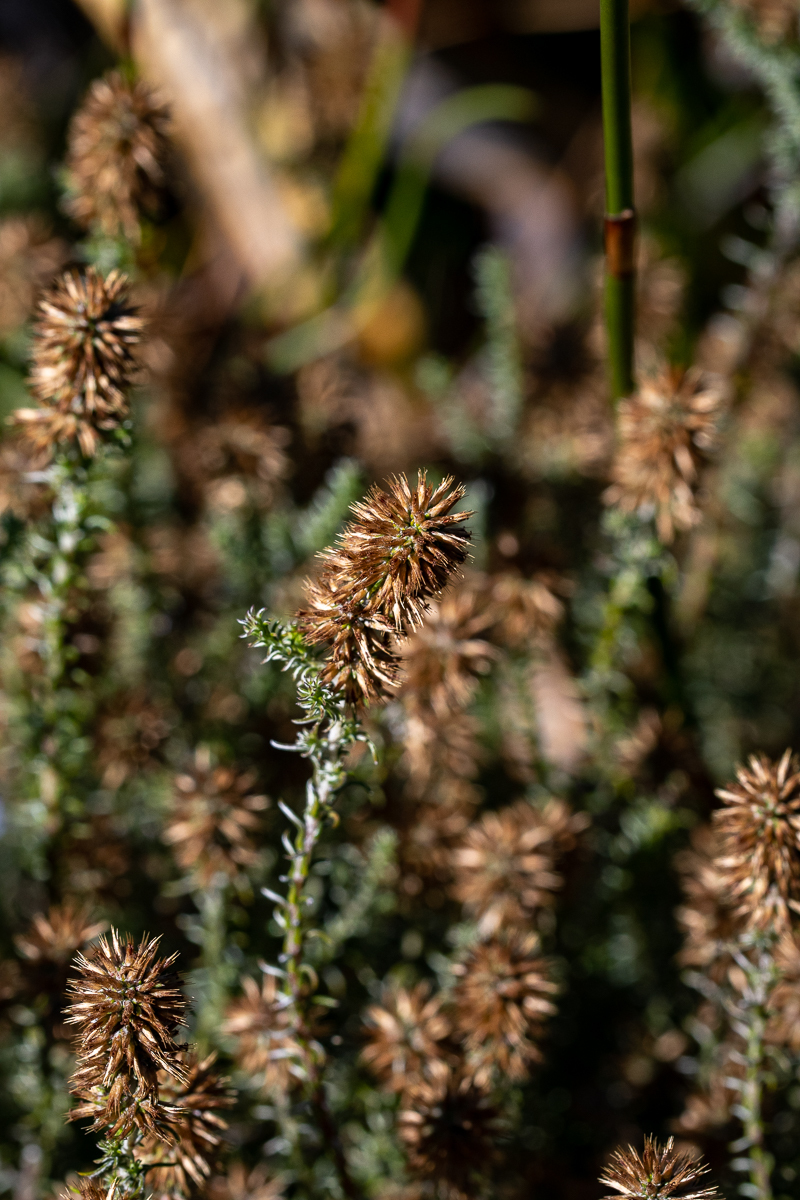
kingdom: Plantae
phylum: Tracheophyta
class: Magnoliopsida
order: Asterales
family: Asteraceae
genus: Seriphium
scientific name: Seriphium cinereum
